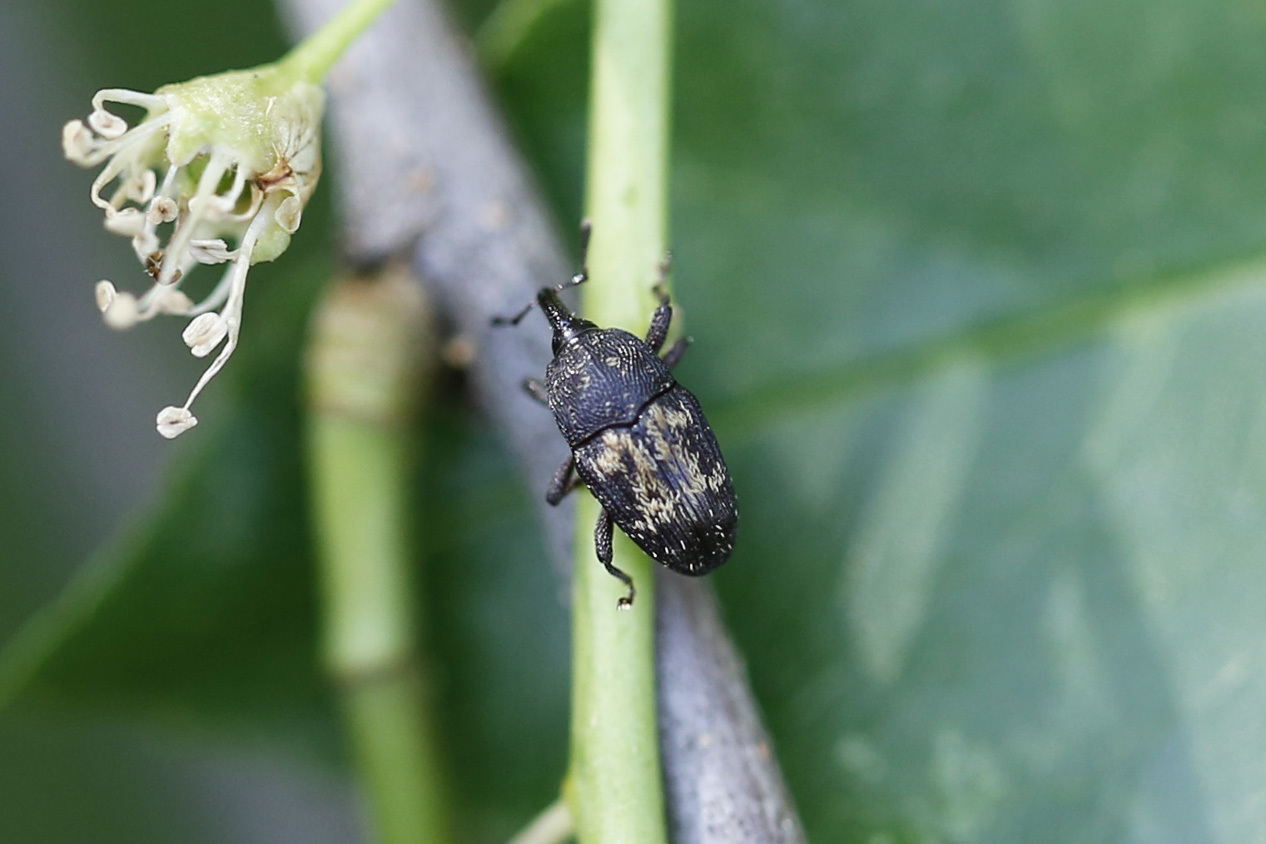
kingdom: Animalia
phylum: Arthropoda
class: Insecta
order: Coleoptera
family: Curculionidae
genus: Glyptobaris
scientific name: Glyptobaris lecontei
